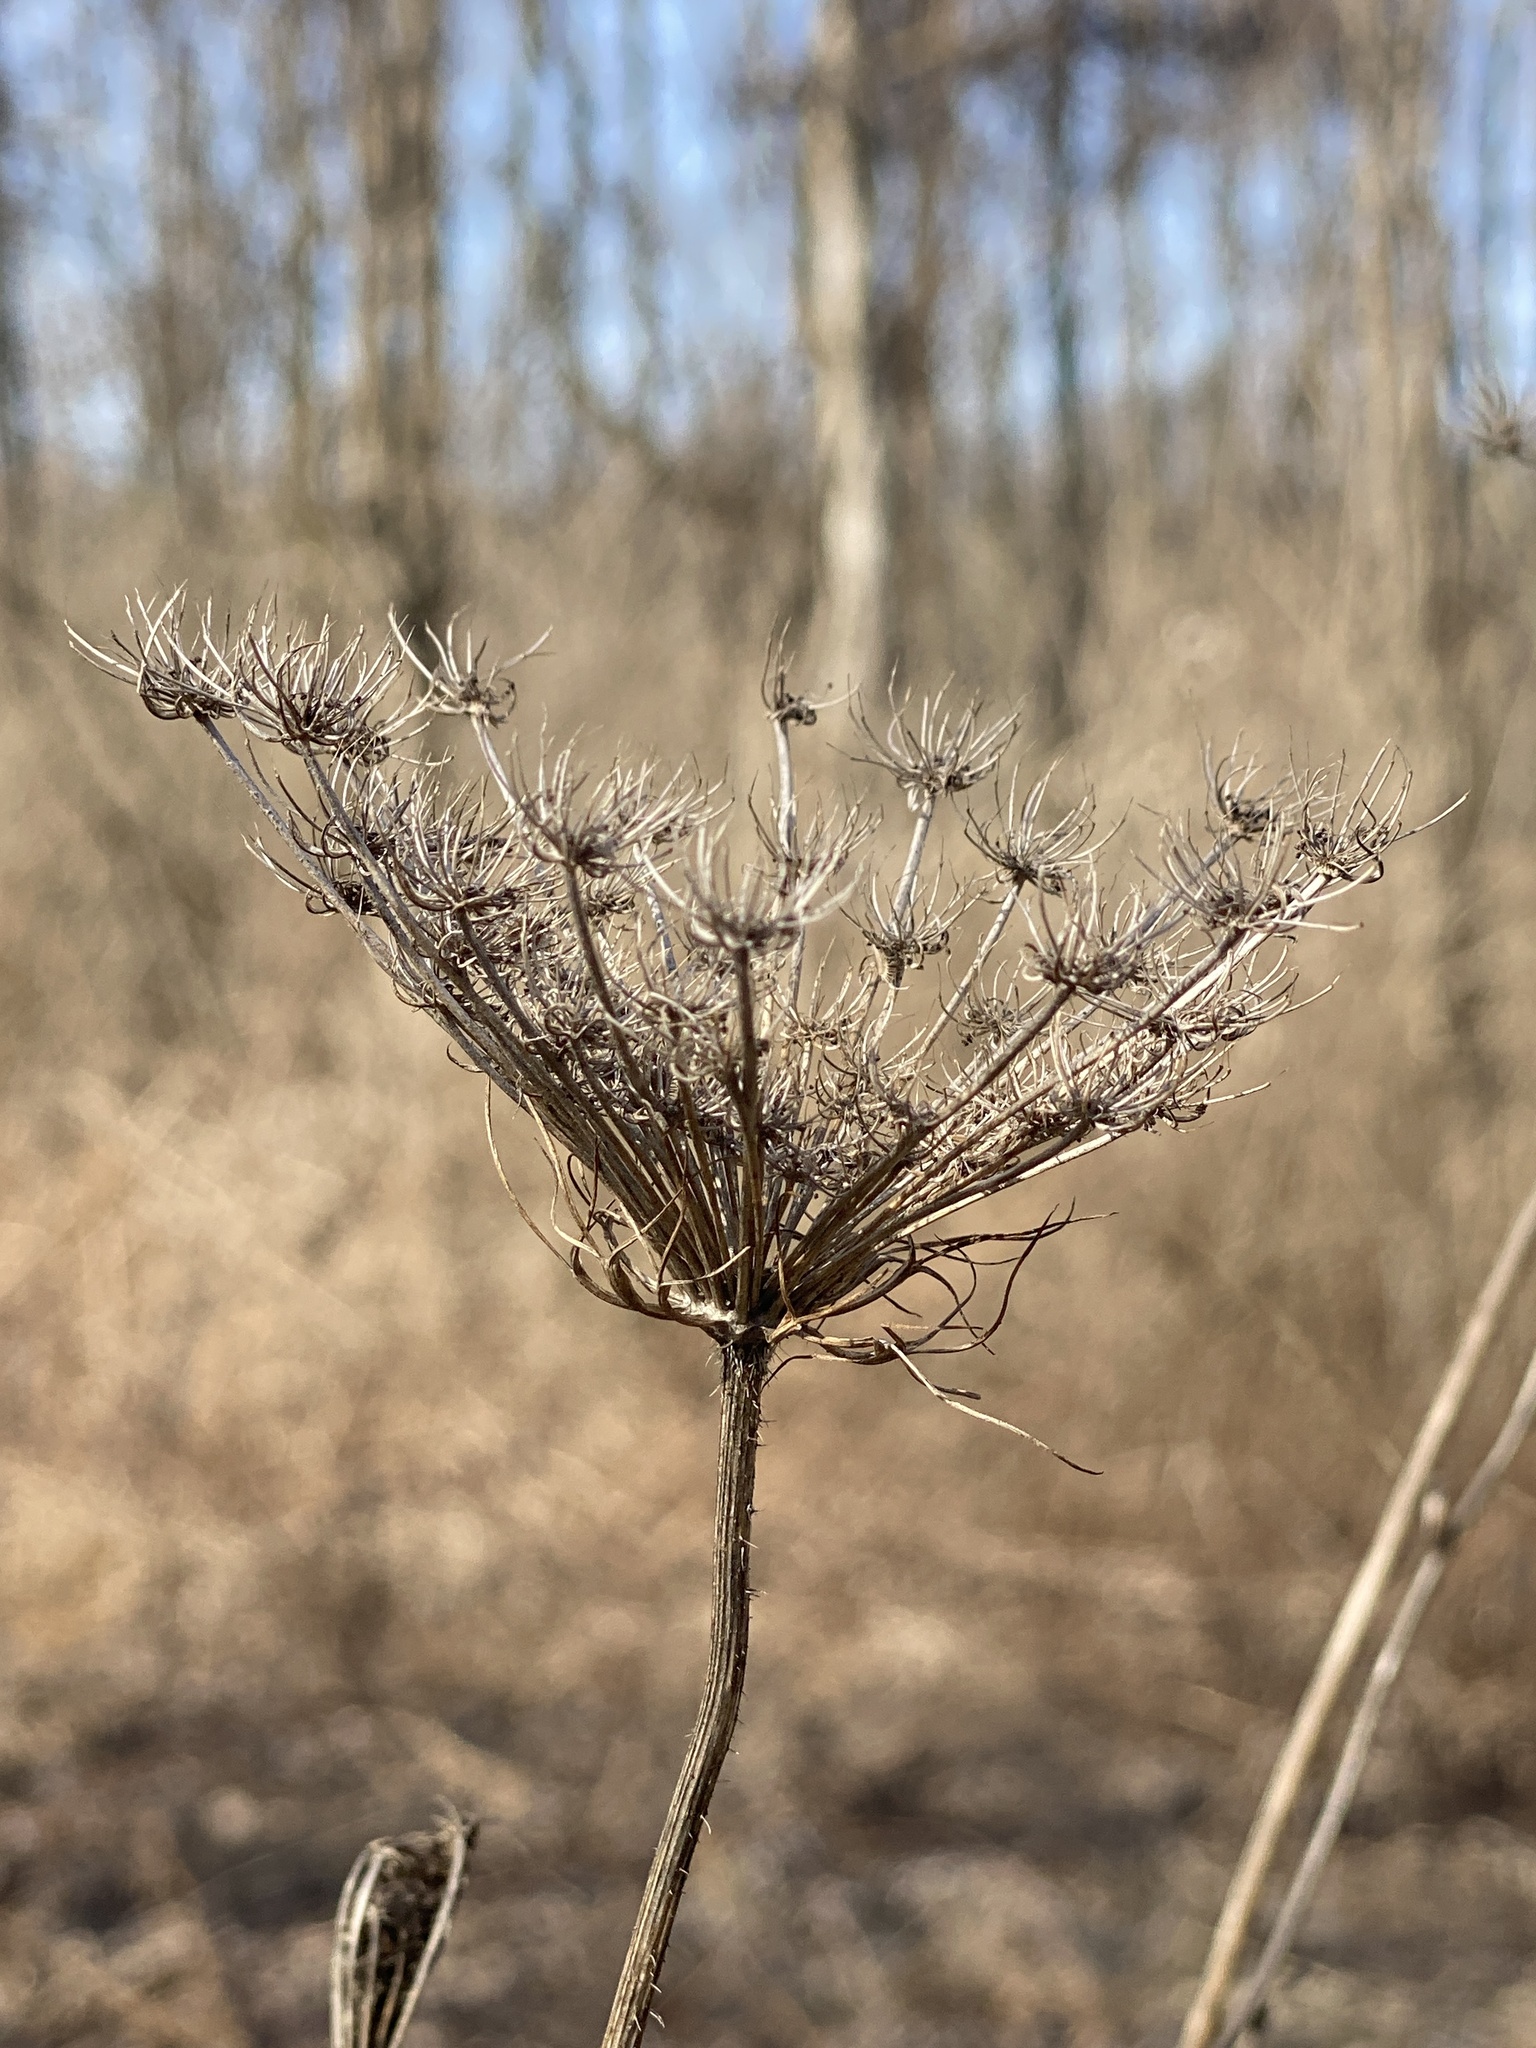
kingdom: Plantae
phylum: Tracheophyta
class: Magnoliopsida
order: Apiales
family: Apiaceae
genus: Daucus
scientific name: Daucus carota
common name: Wild carrot
